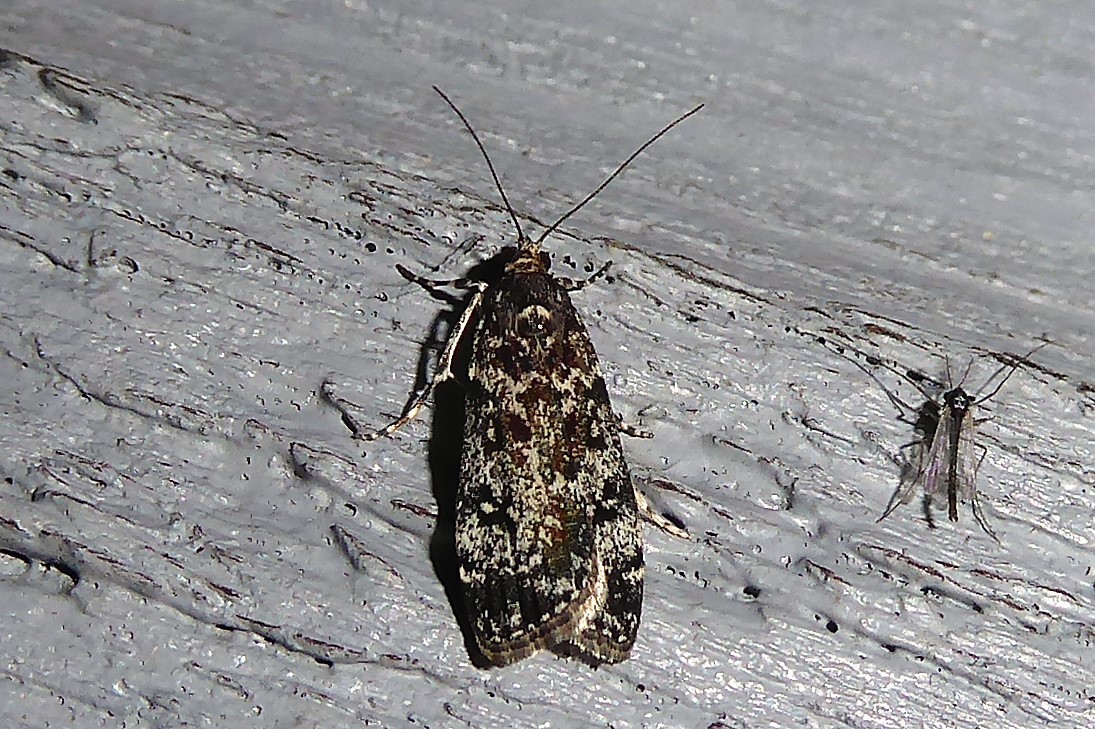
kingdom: Animalia
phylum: Arthropoda
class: Insecta
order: Lepidoptera
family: Crambidae
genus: Eudonia
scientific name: Eudonia philerga
